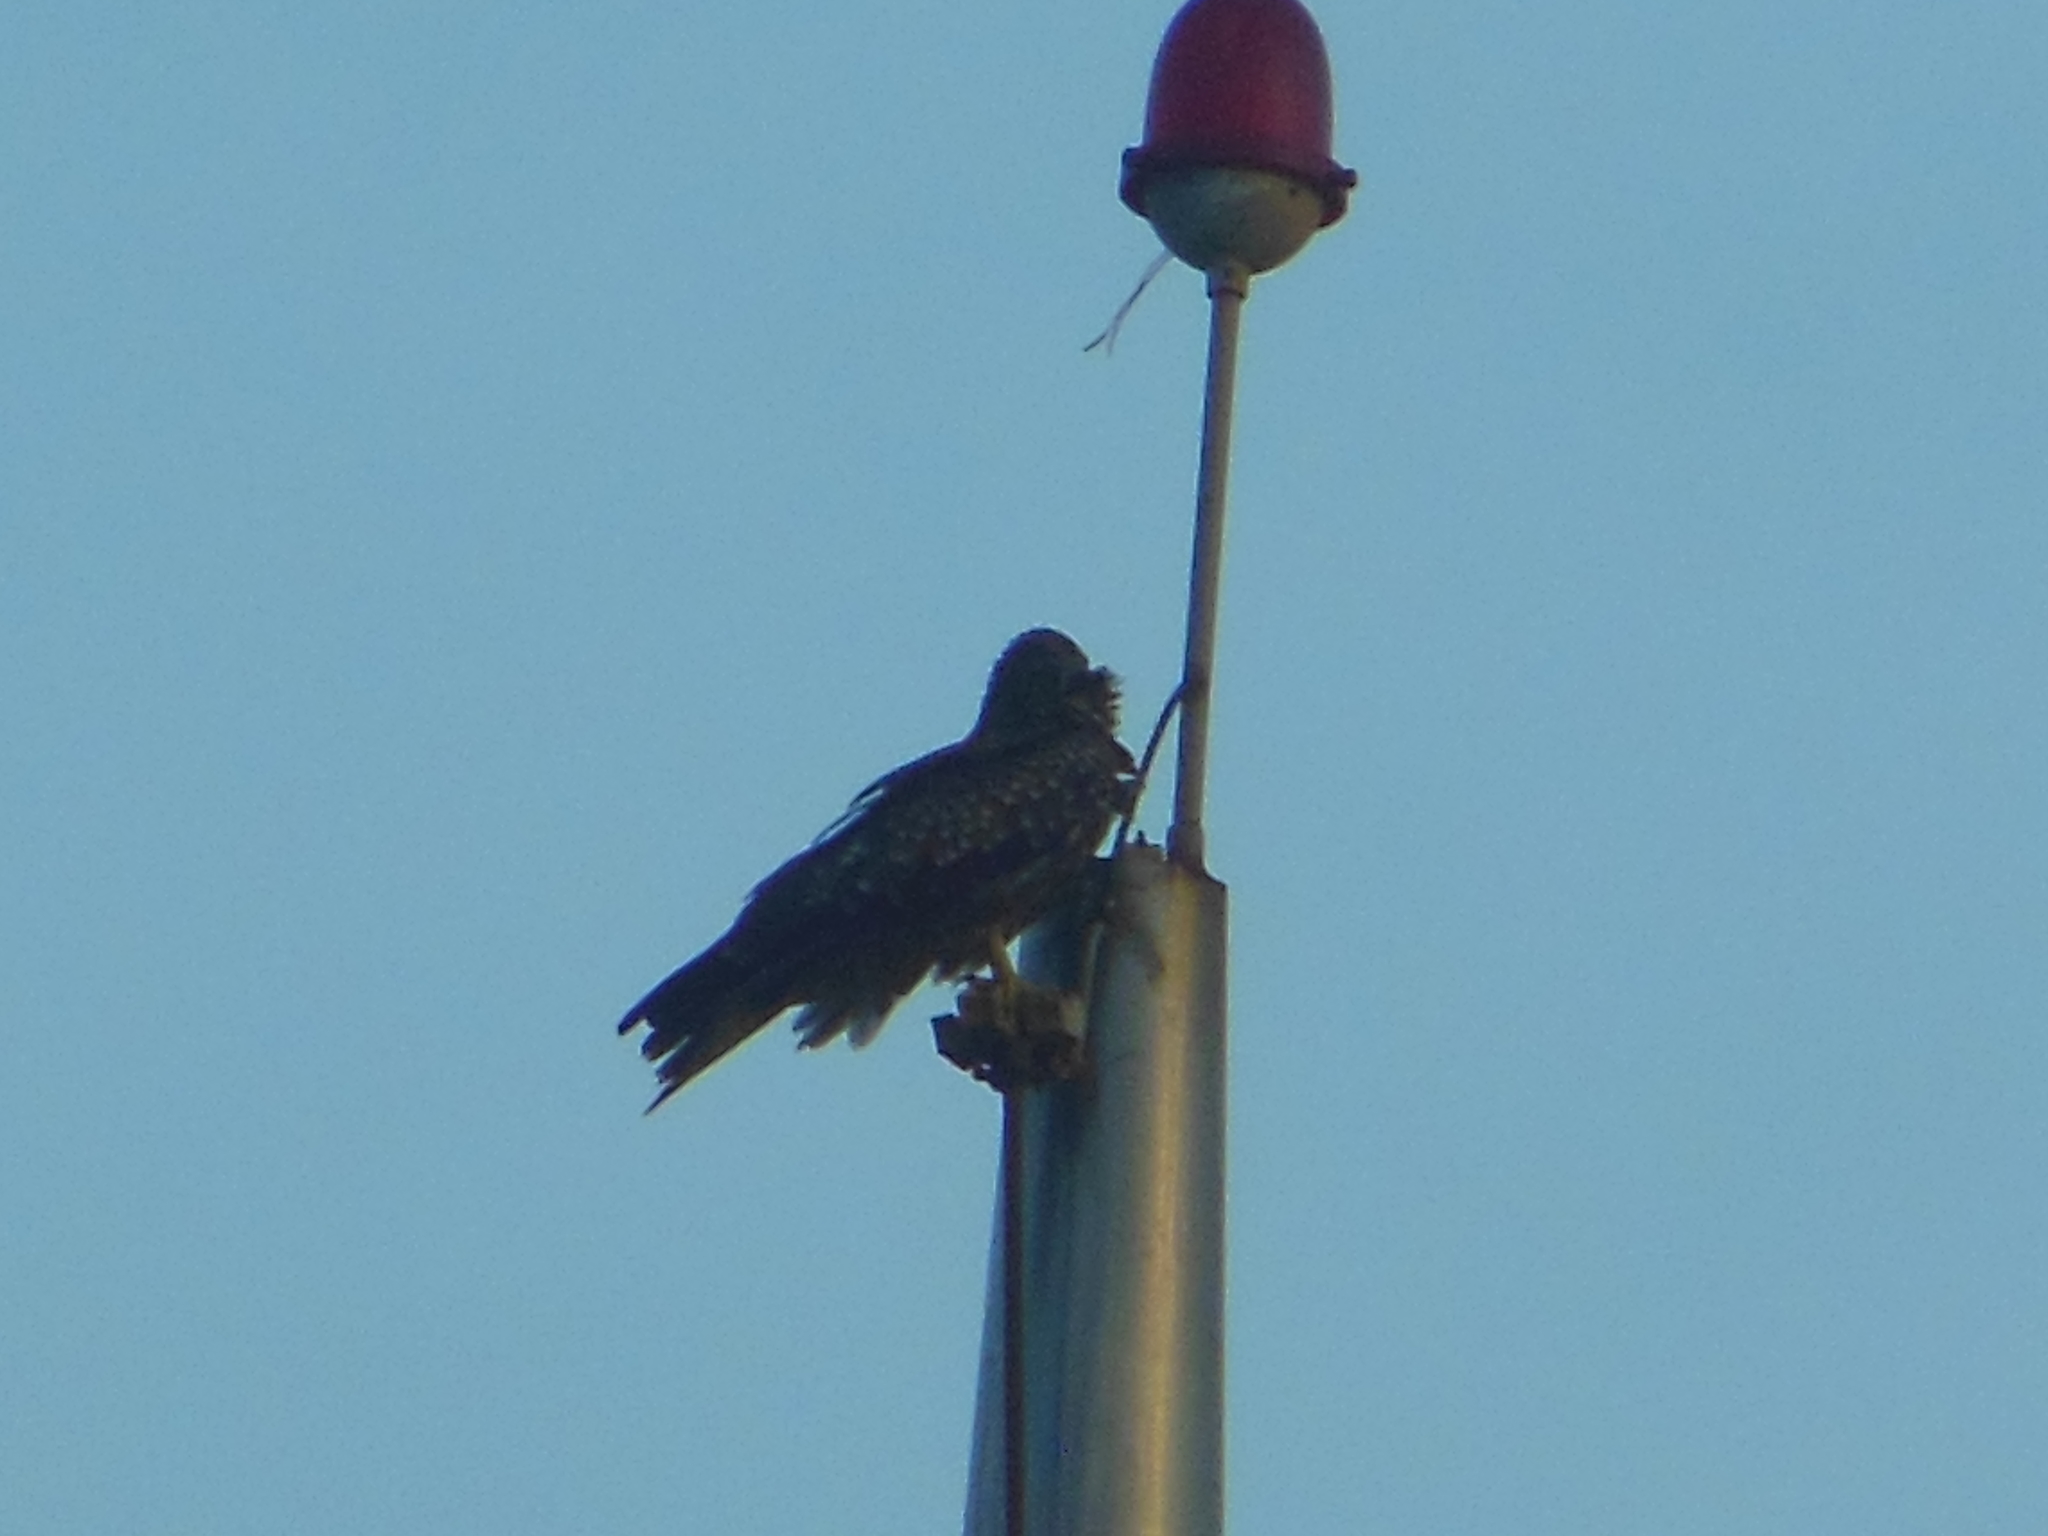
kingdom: Animalia
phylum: Chordata
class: Aves
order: Accipitriformes
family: Accipitridae
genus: Milvus
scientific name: Milvus migrans
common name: Black kite
